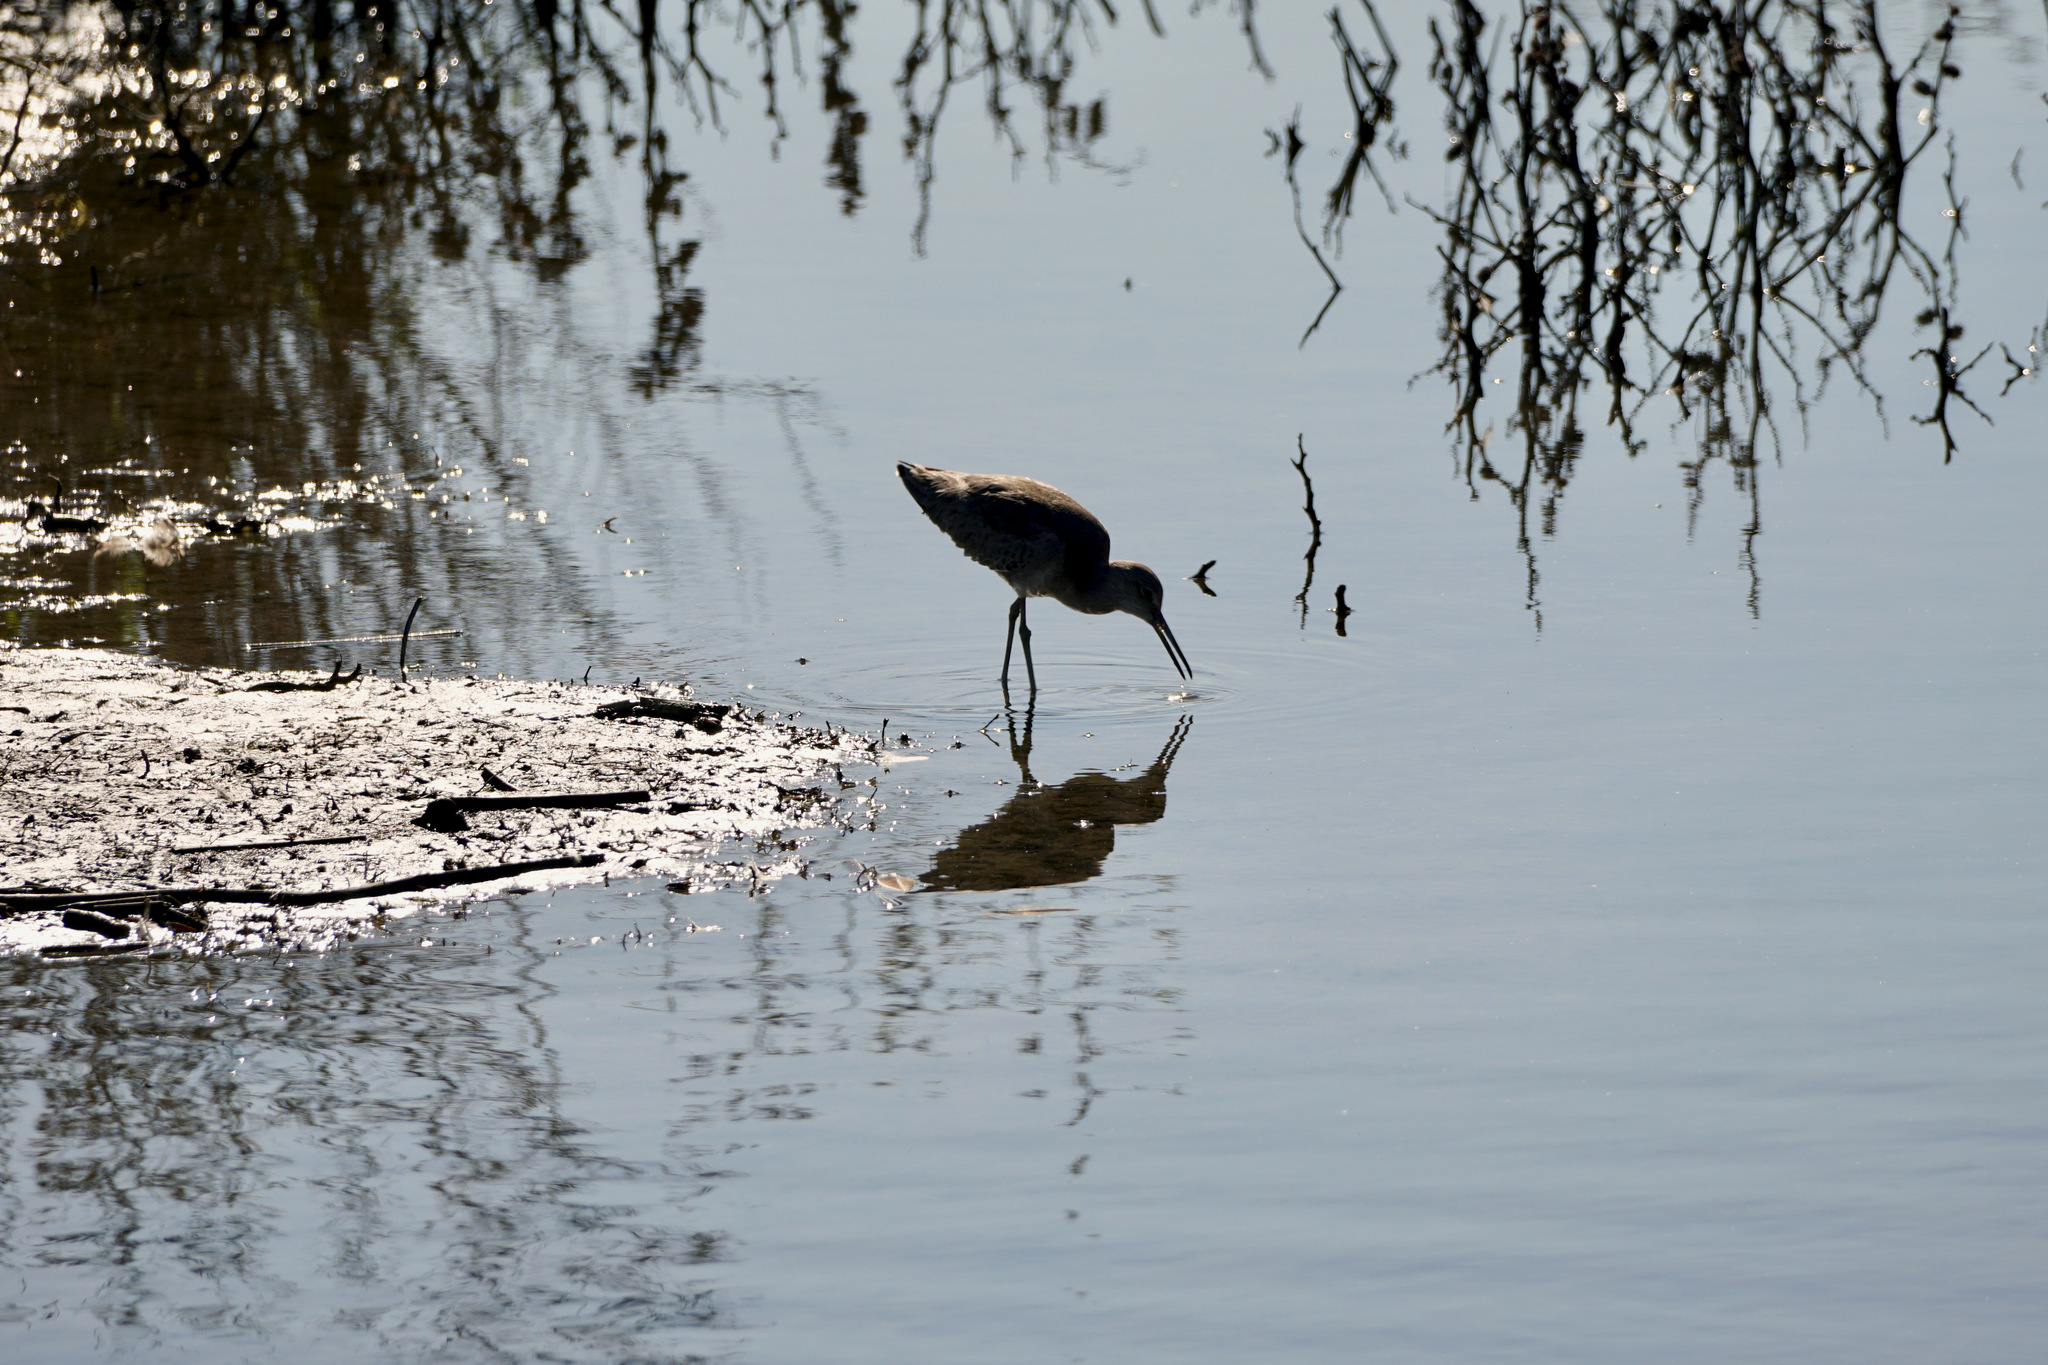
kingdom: Animalia
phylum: Chordata
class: Aves
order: Charadriiformes
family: Scolopacidae
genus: Tringa
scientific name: Tringa semipalmata
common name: Willet
